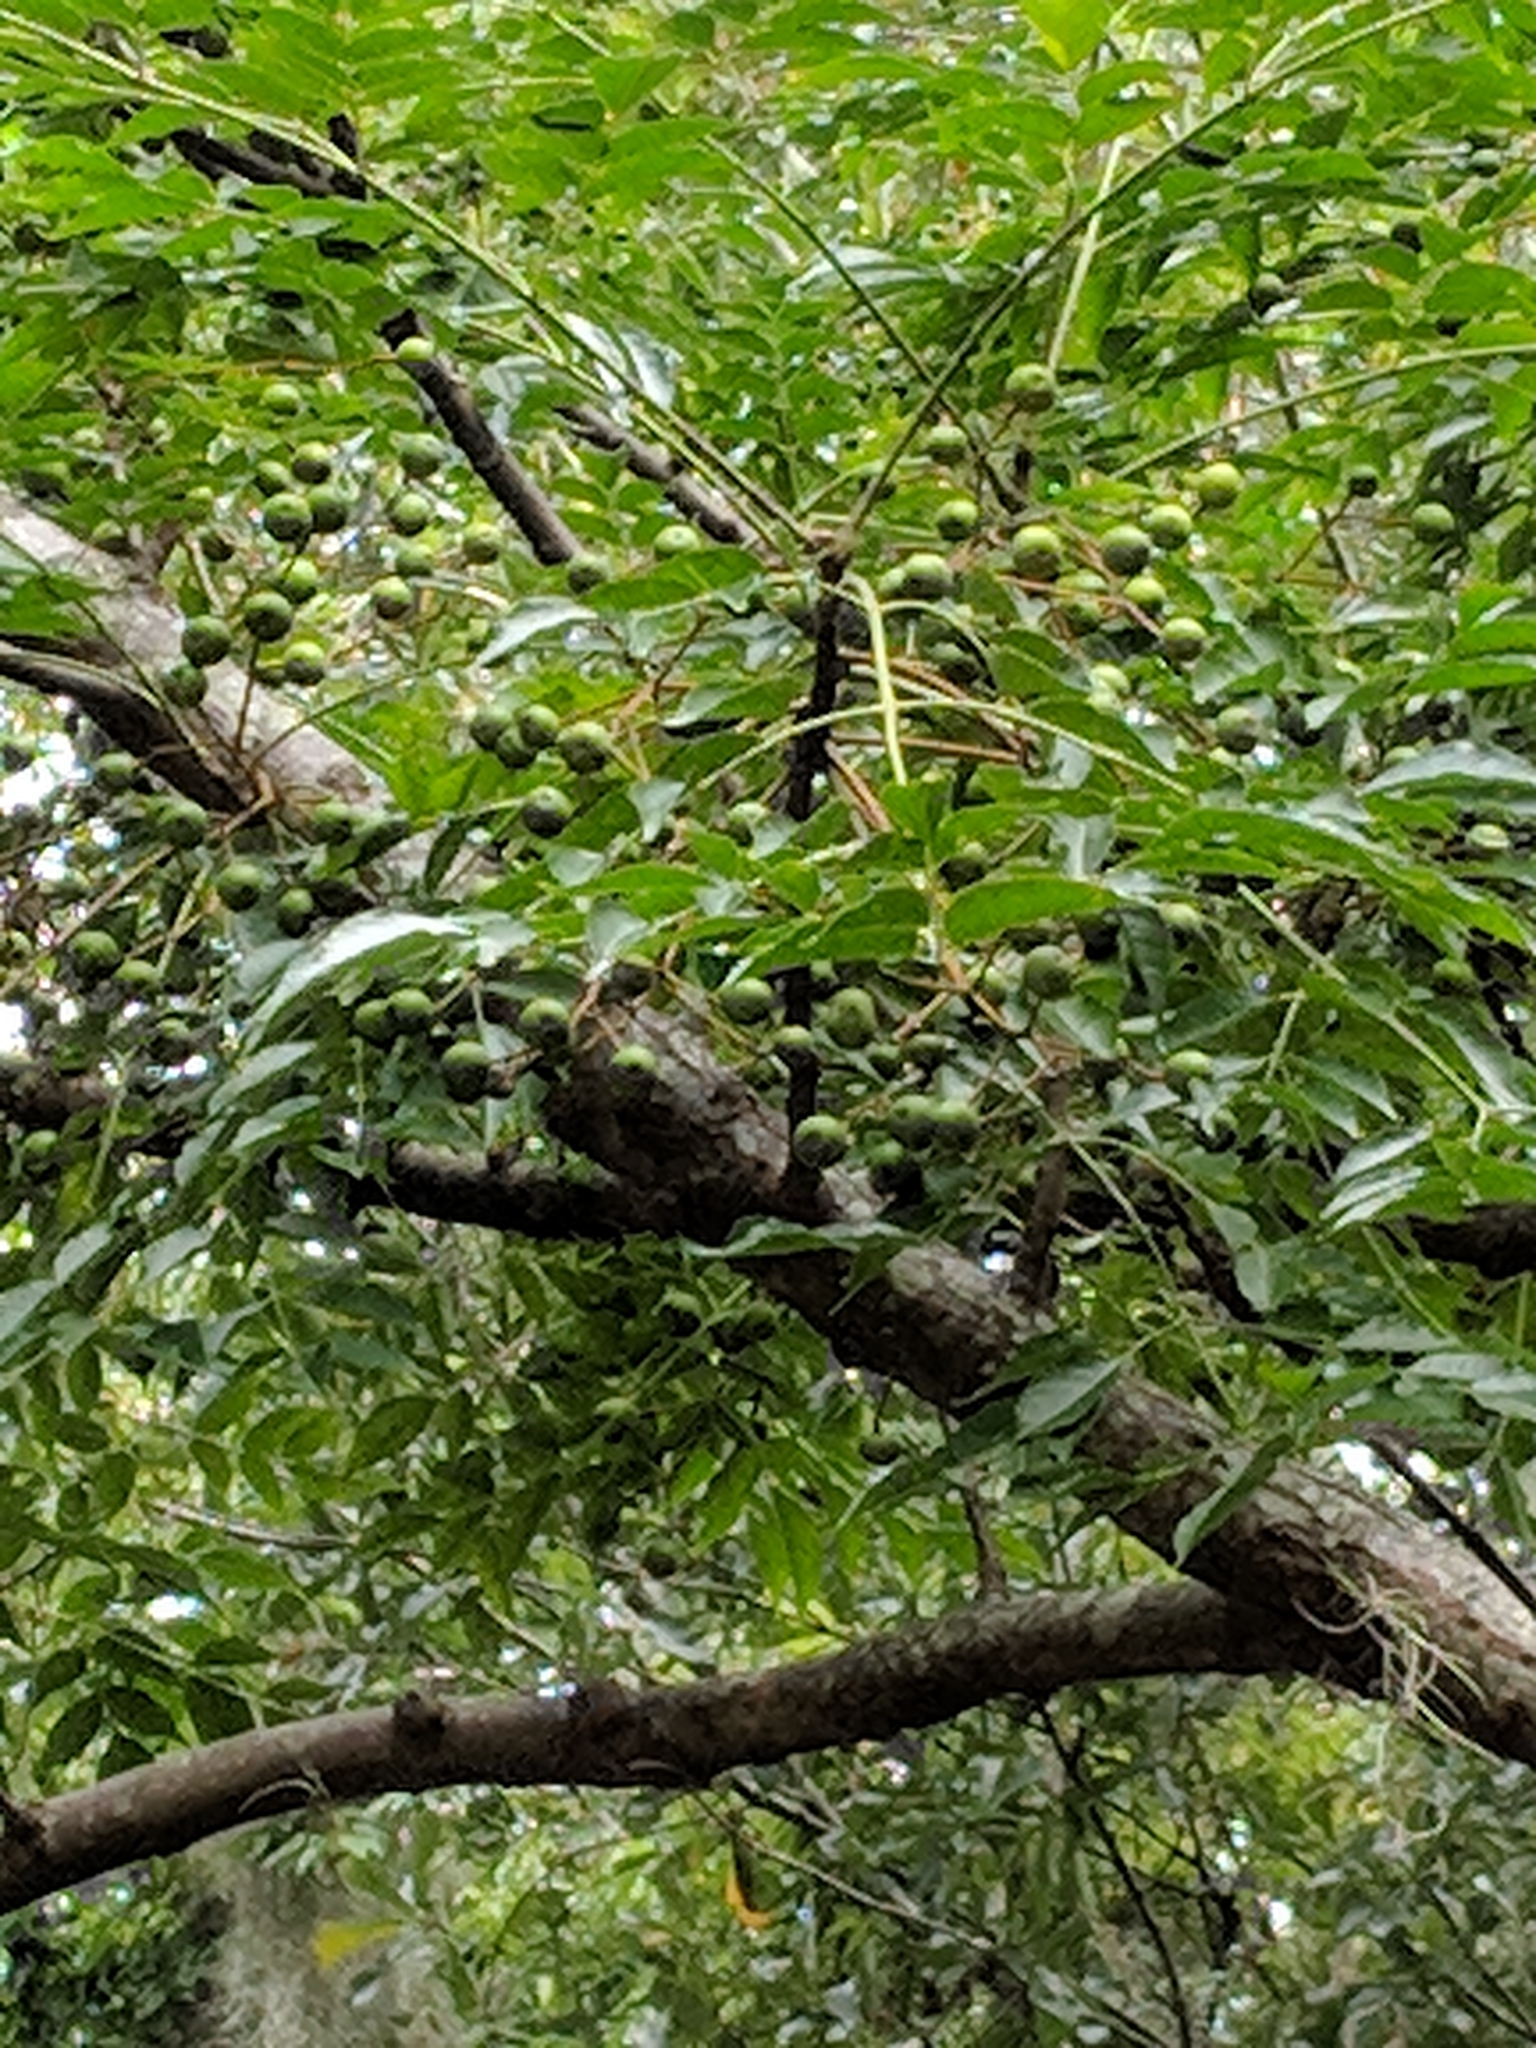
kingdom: Plantae
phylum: Tracheophyta
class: Magnoliopsida
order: Sapindales
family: Meliaceae
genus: Melia
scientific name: Melia azedarach
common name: Chinaberrytree
